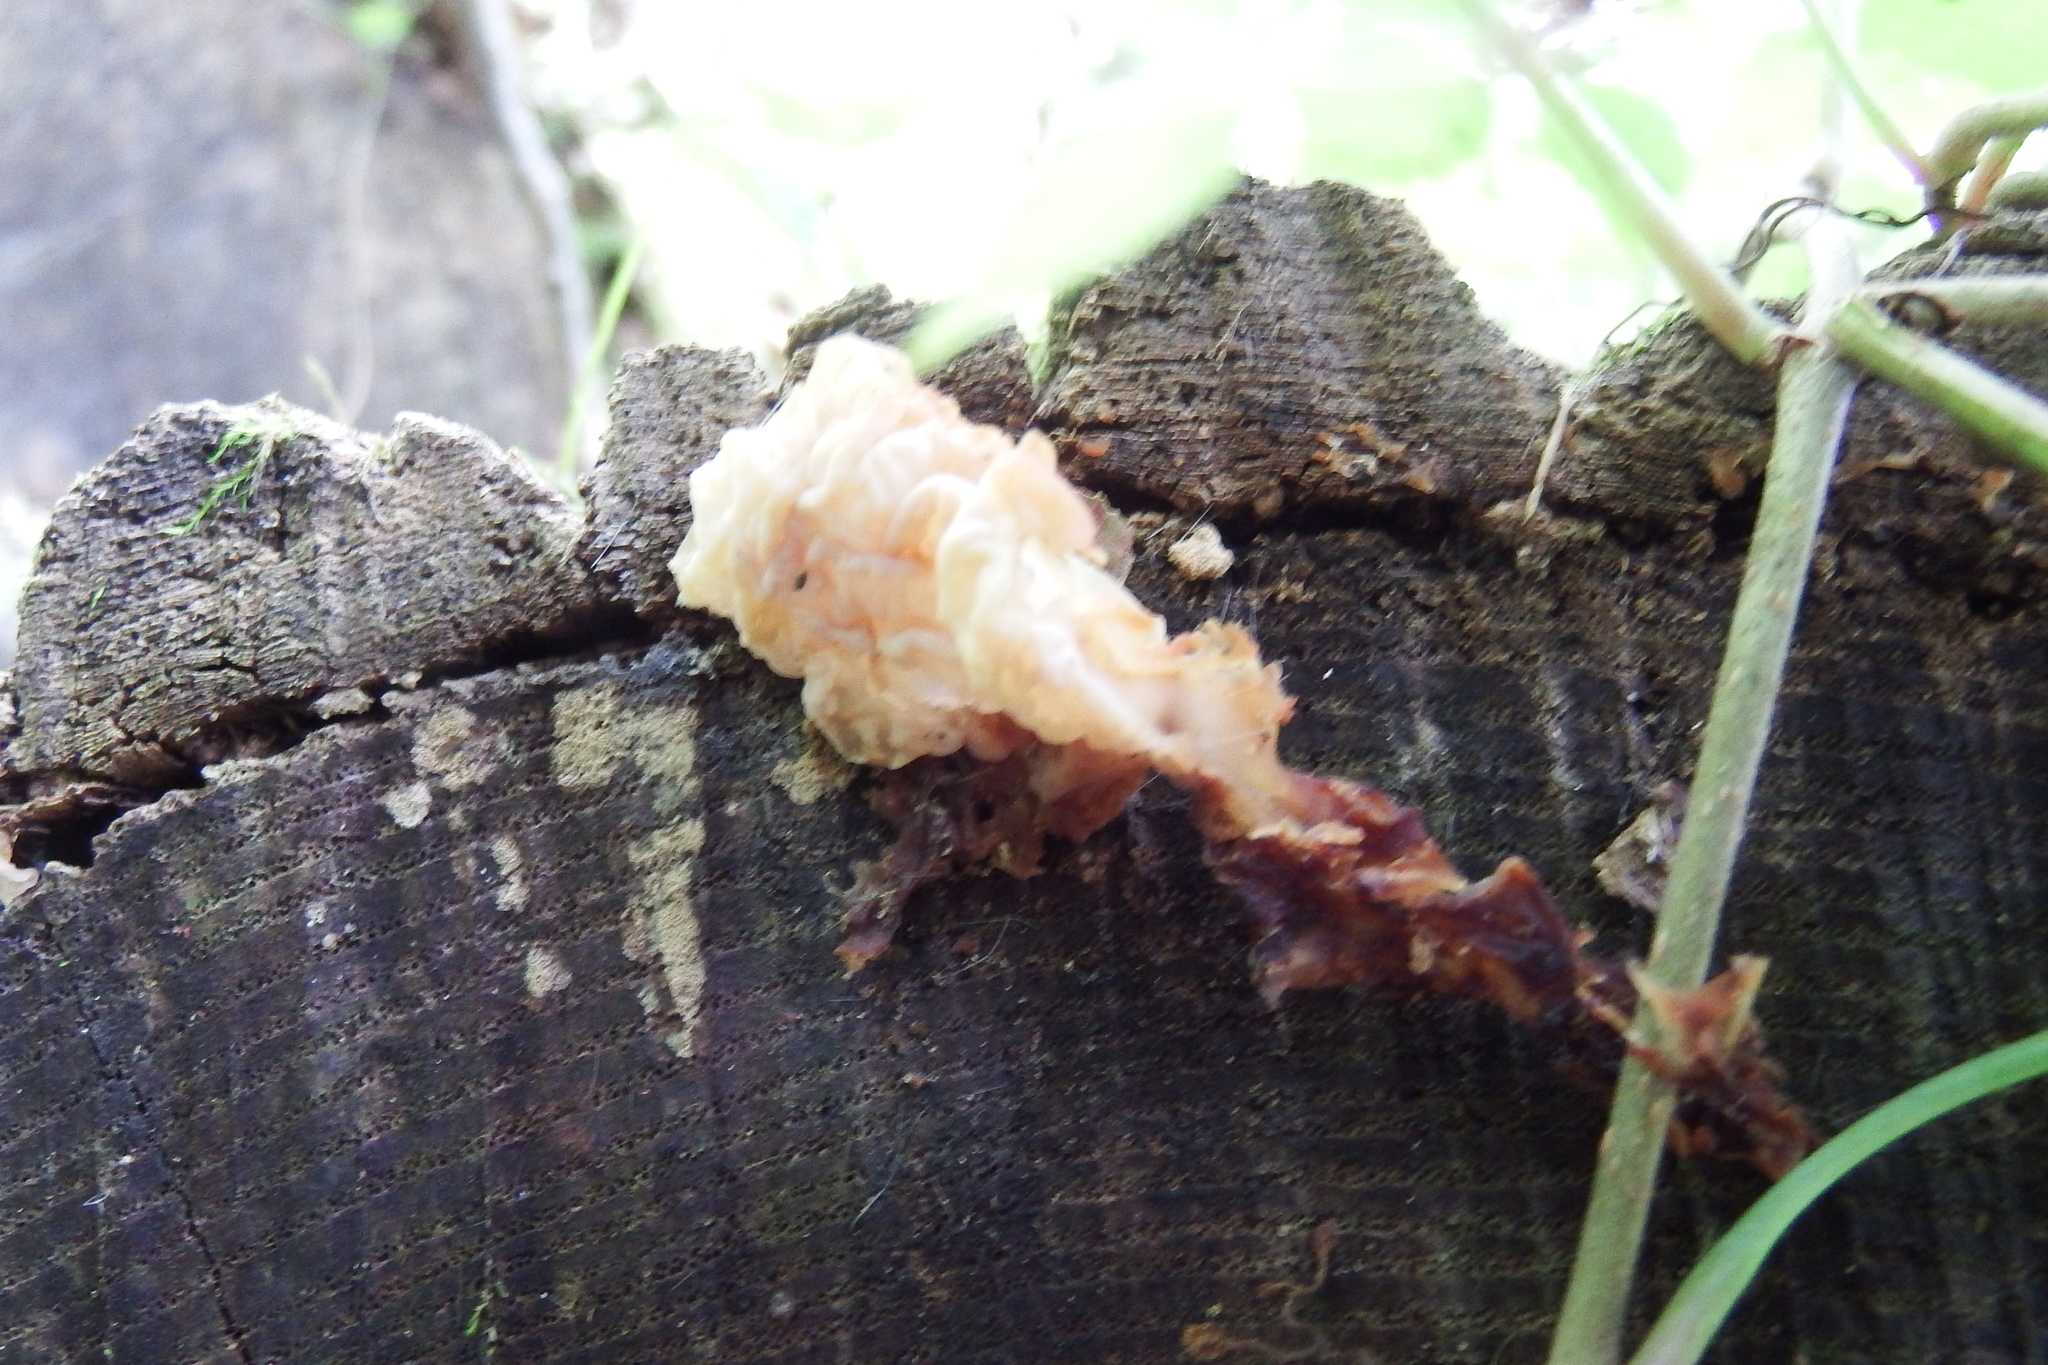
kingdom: Fungi
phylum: Basidiomycota
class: Agaricomycetes
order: Auriculariales
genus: Ductifera
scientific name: Ductifera pululahuana
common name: White jelly fungus
